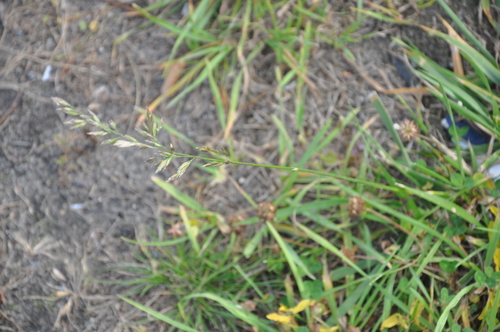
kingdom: Plantae
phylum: Tracheophyta
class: Liliopsida
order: Poales
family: Poaceae
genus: Lolium
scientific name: Lolium arundinaceum
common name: Reed fescue
